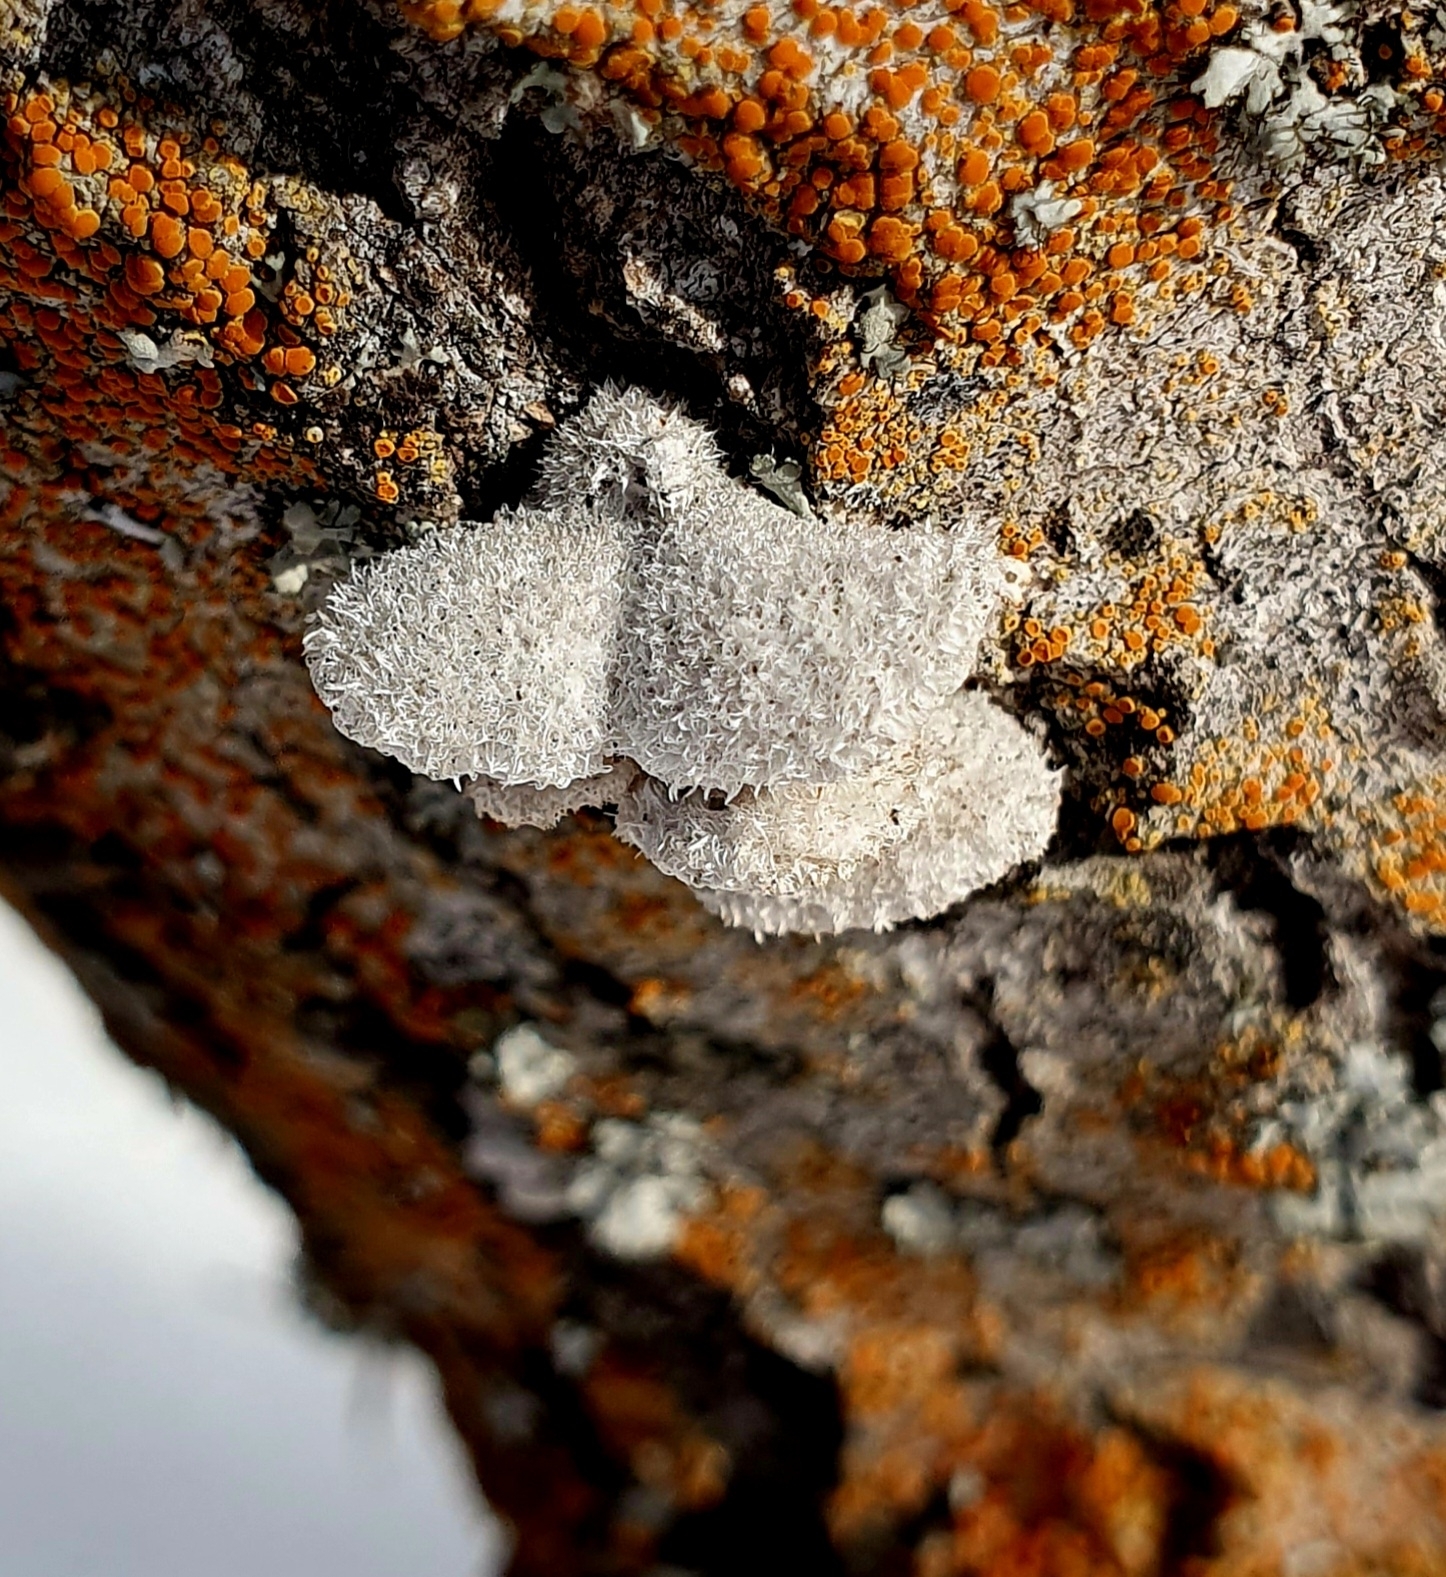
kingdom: Fungi
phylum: Basidiomycota
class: Agaricomycetes
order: Agaricales
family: Schizophyllaceae
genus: Schizophyllum
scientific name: Schizophyllum commune
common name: Common porecrust
